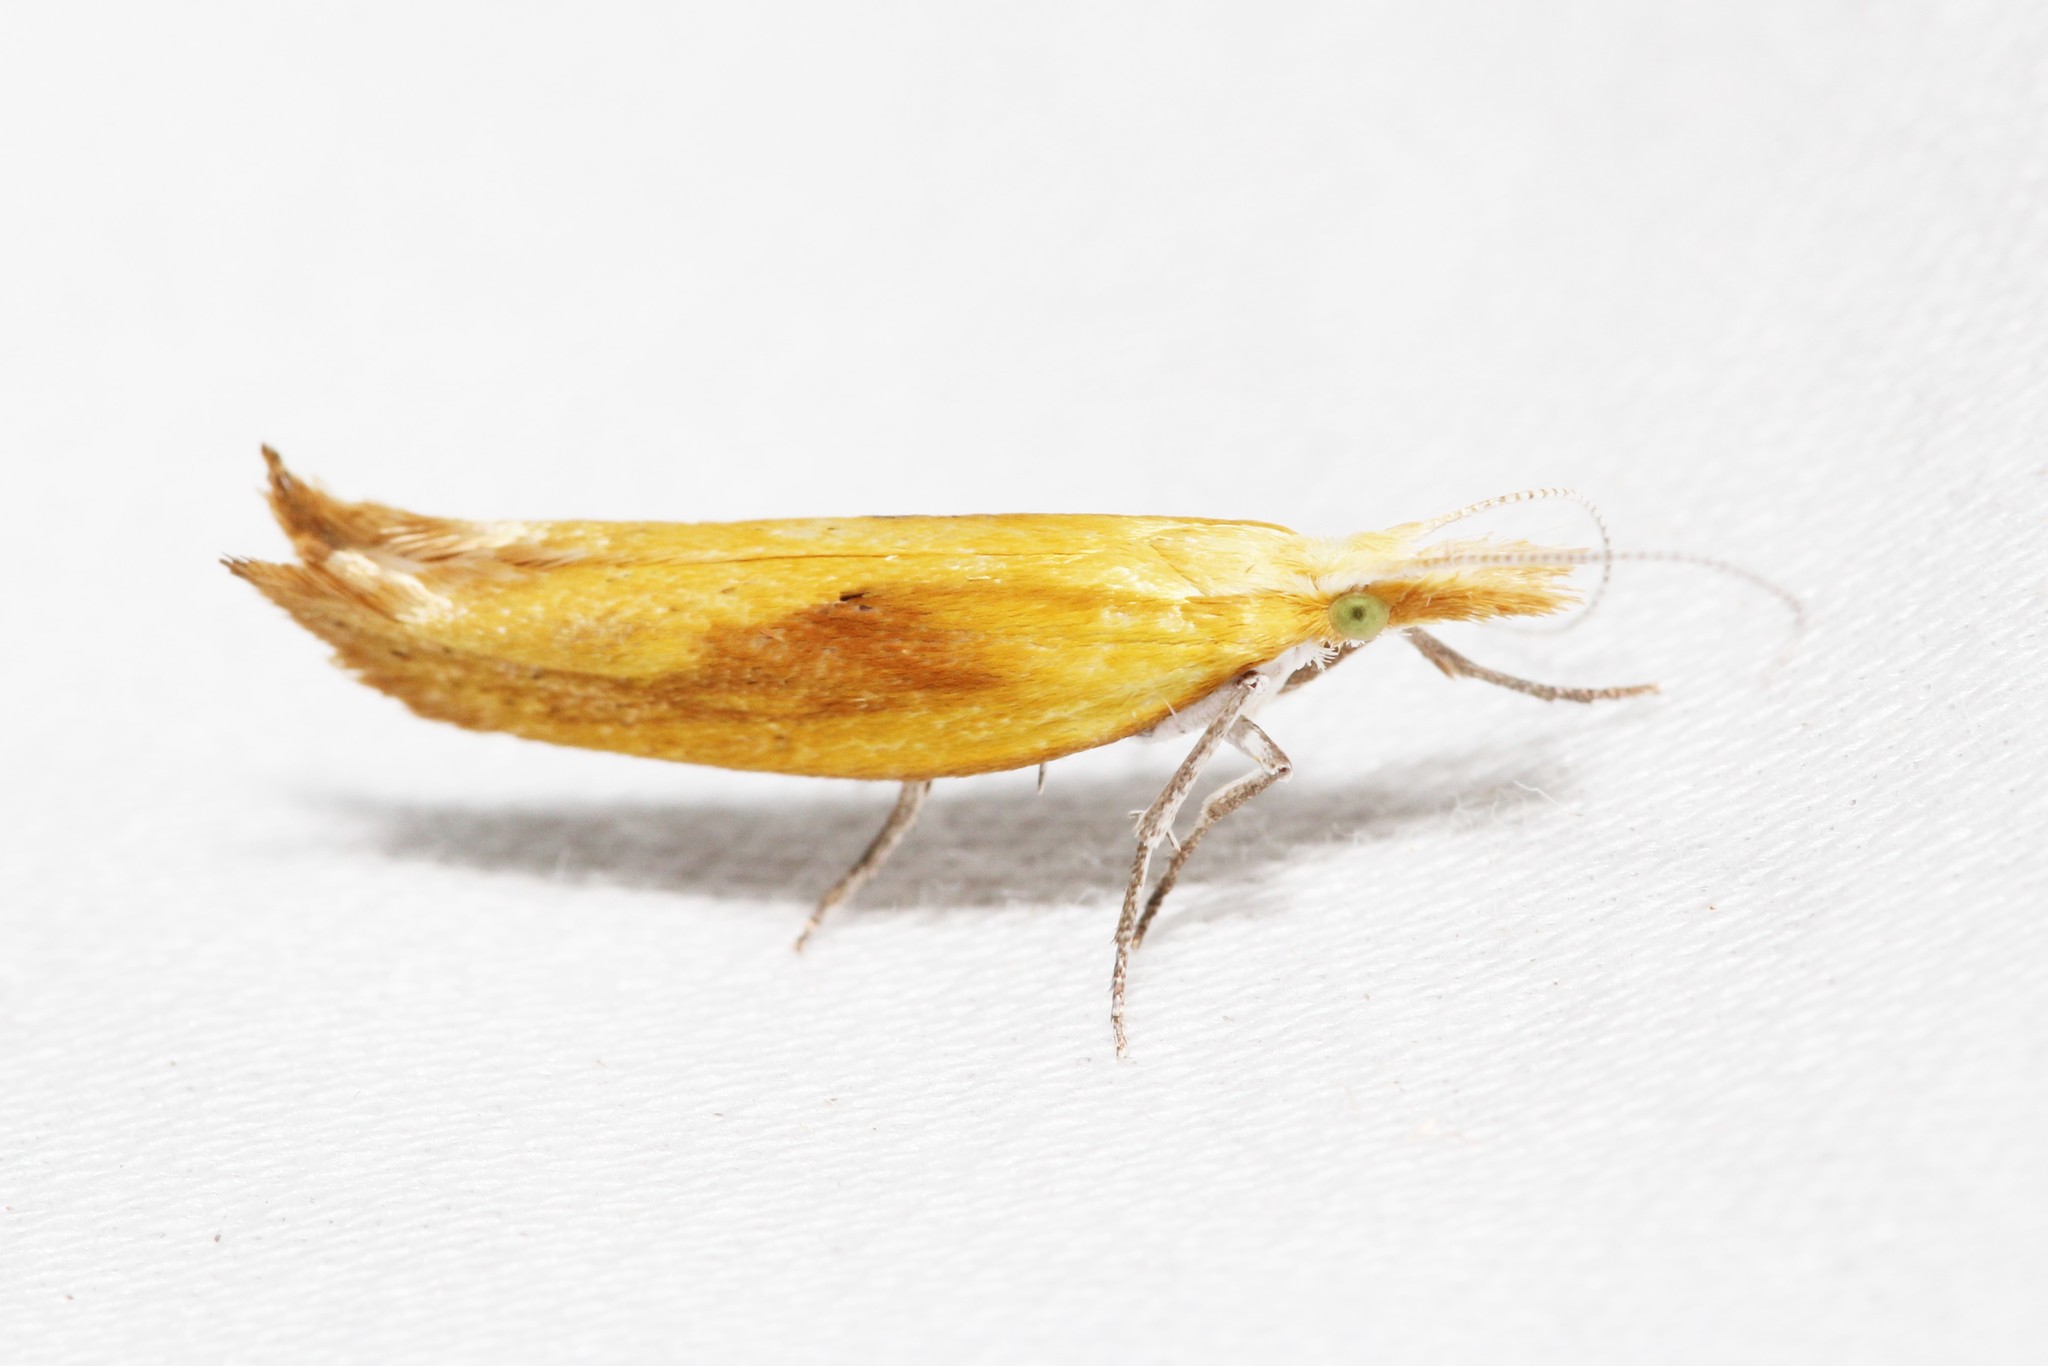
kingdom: Animalia
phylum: Arthropoda
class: Insecta
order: Lepidoptera
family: Ypsolophidae
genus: Ypsolopha
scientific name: Ypsolopha canariella
